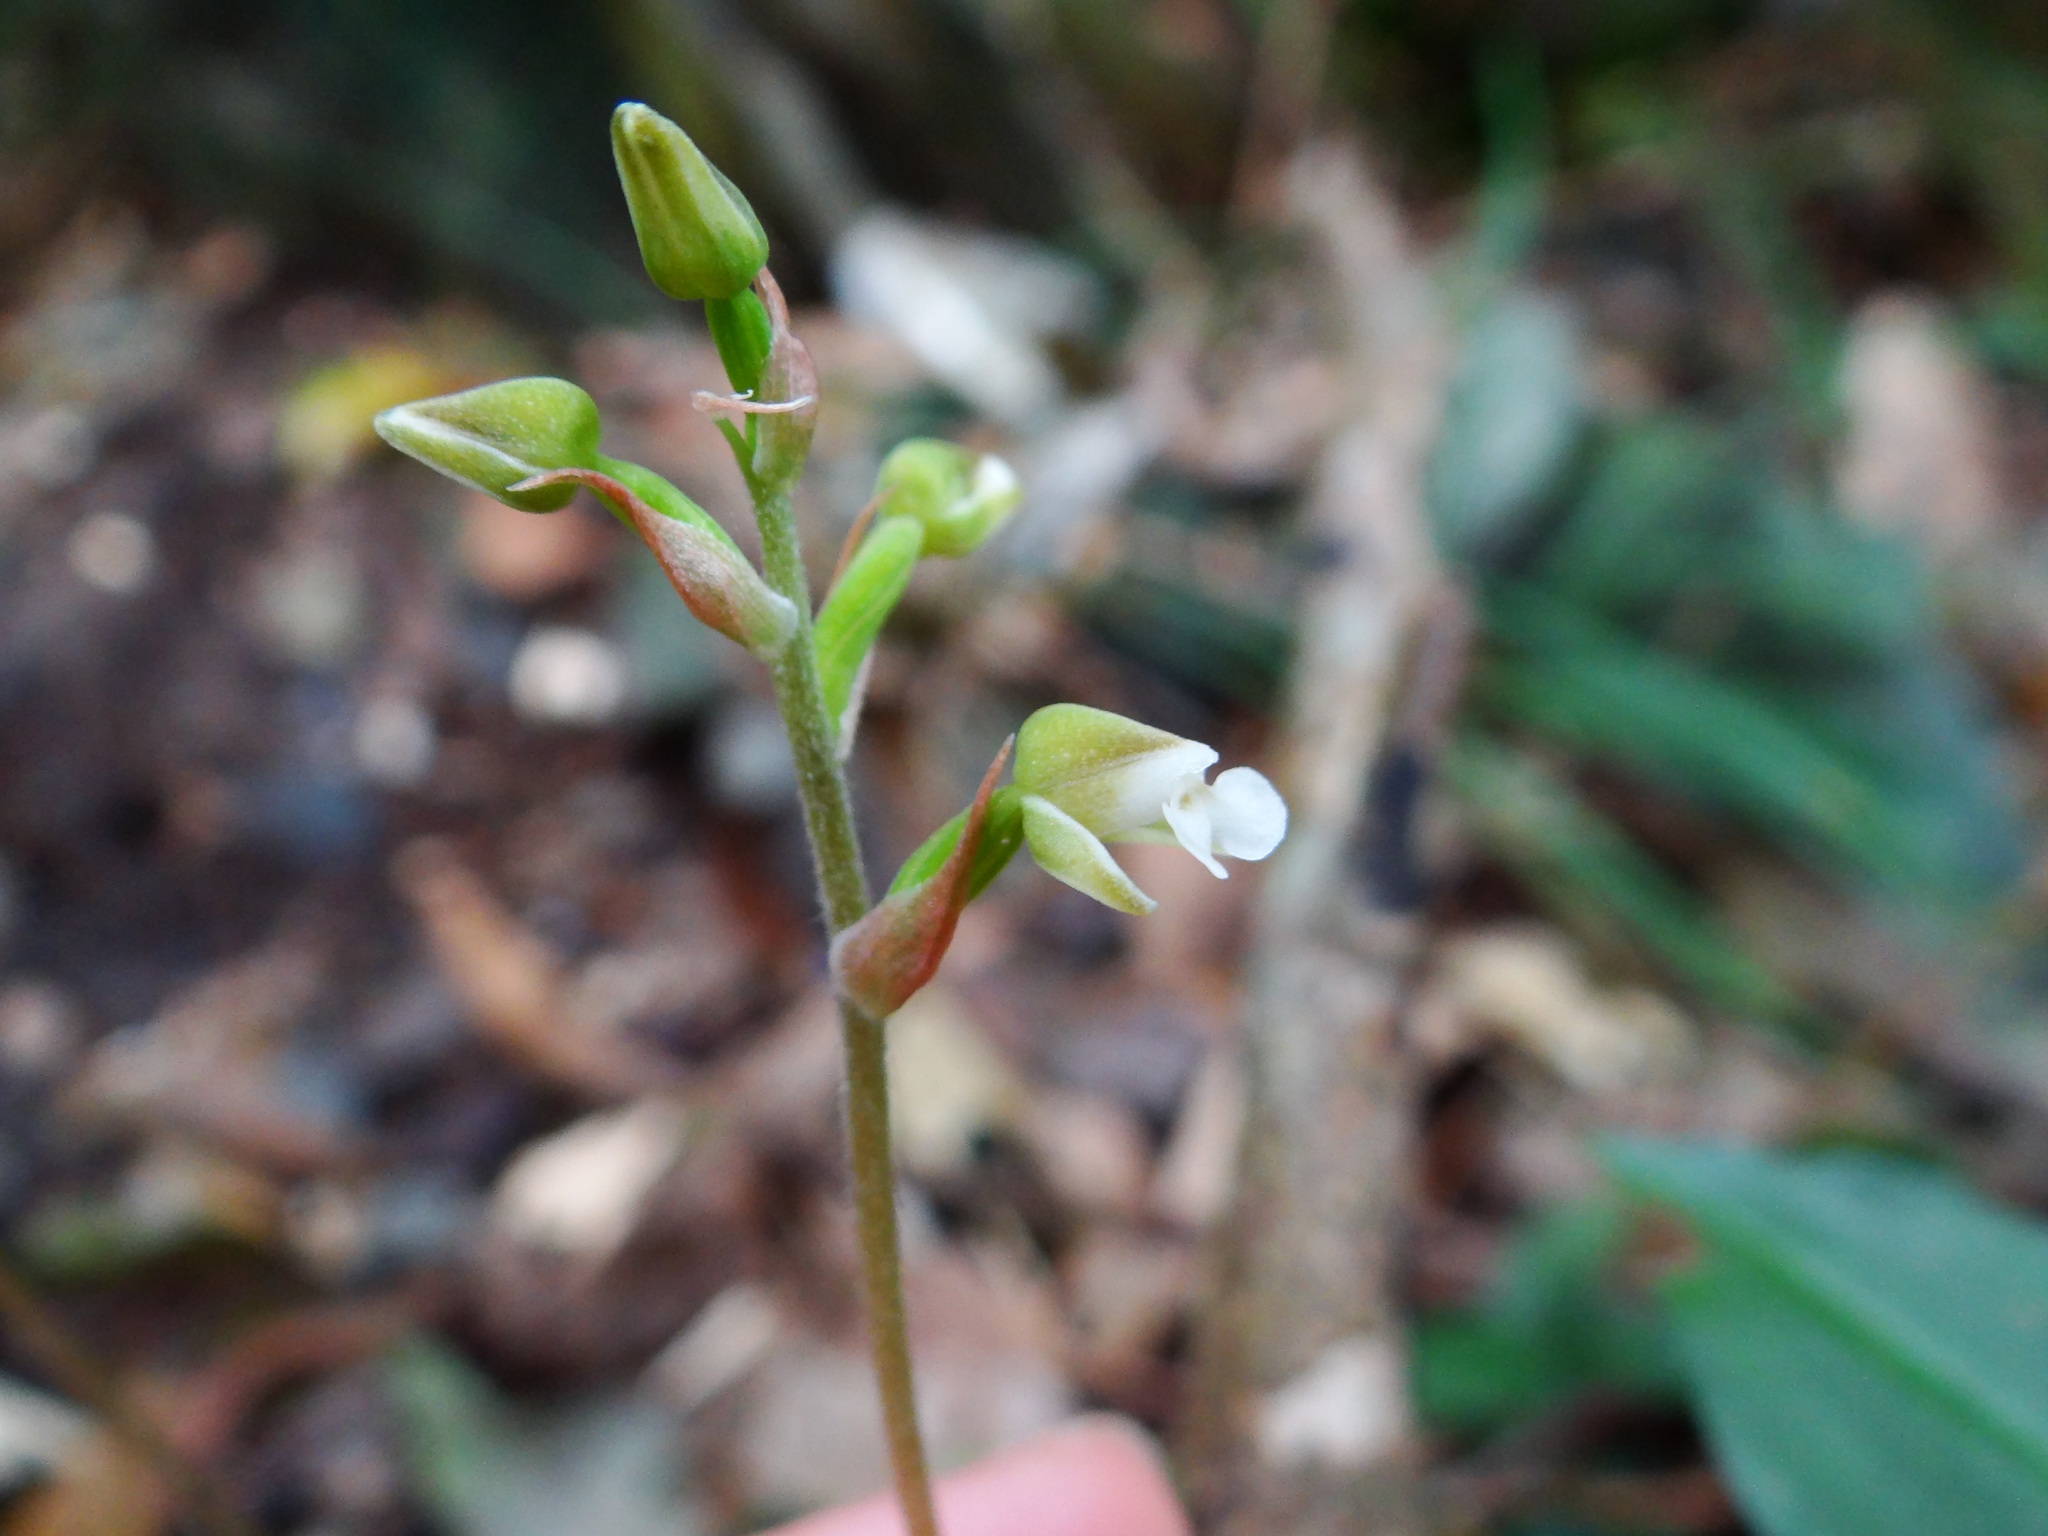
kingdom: Plantae
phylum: Tracheophyta
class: Liliopsida
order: Asparagales
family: Orchidaceae
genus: Zeuxine
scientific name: Zeuxine nervosa
